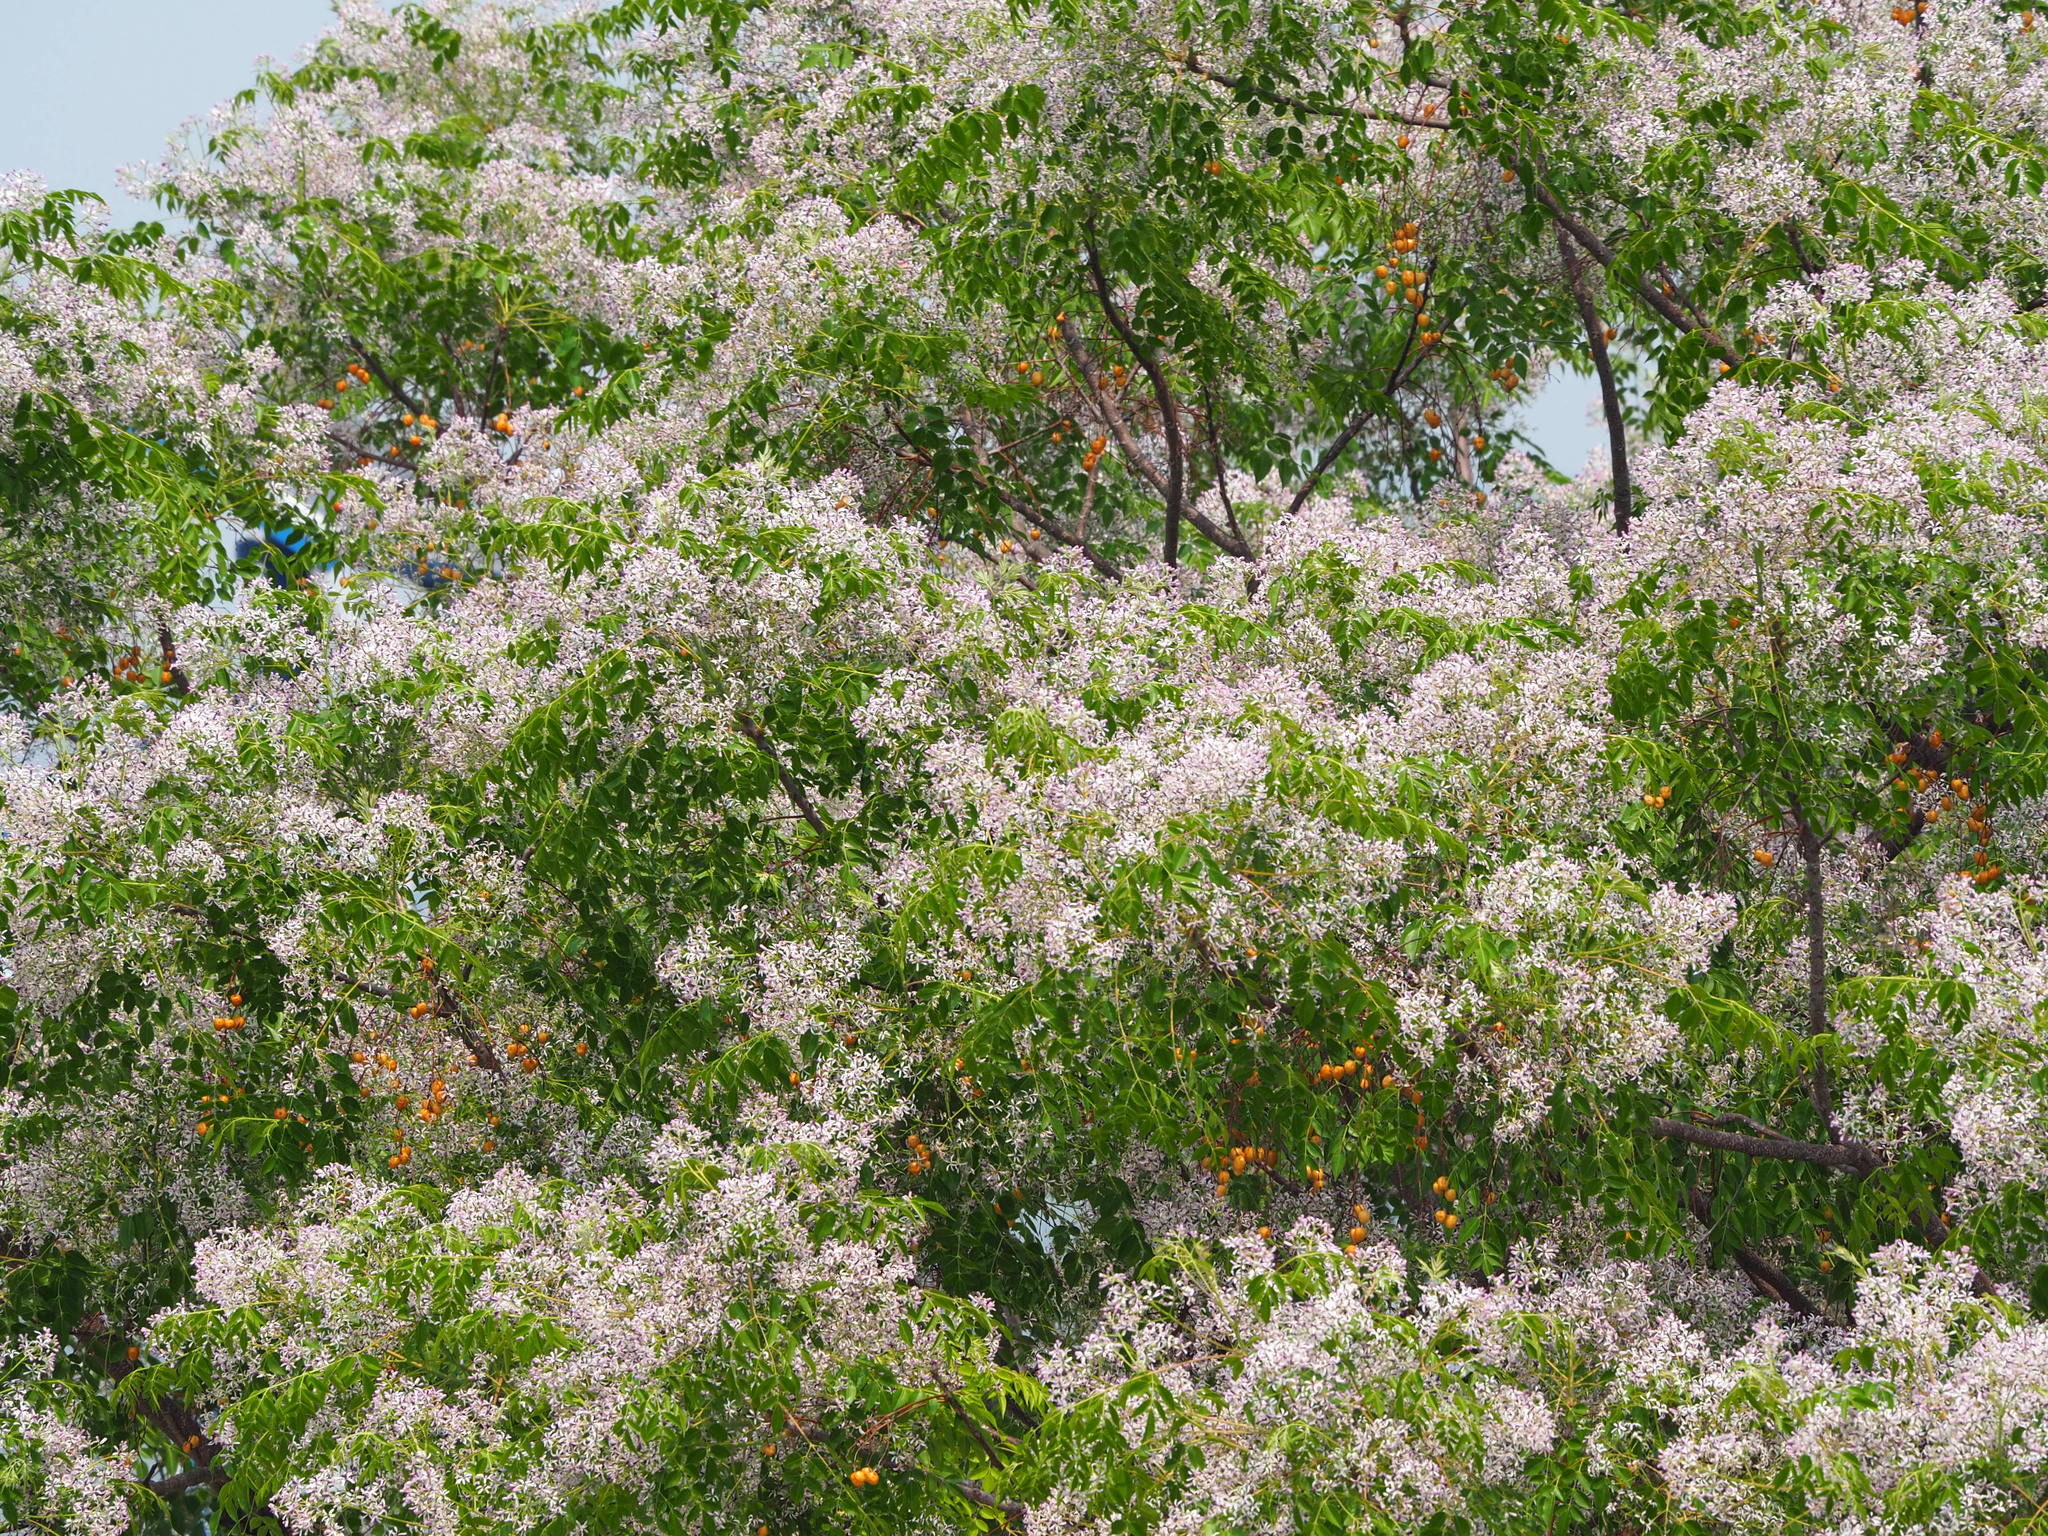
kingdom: Plantae
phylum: Tracheophyta
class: Magnoliopsida
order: Sapindales
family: Meliaceae
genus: Melia
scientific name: Melia azedarach
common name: Chinaberrytree
